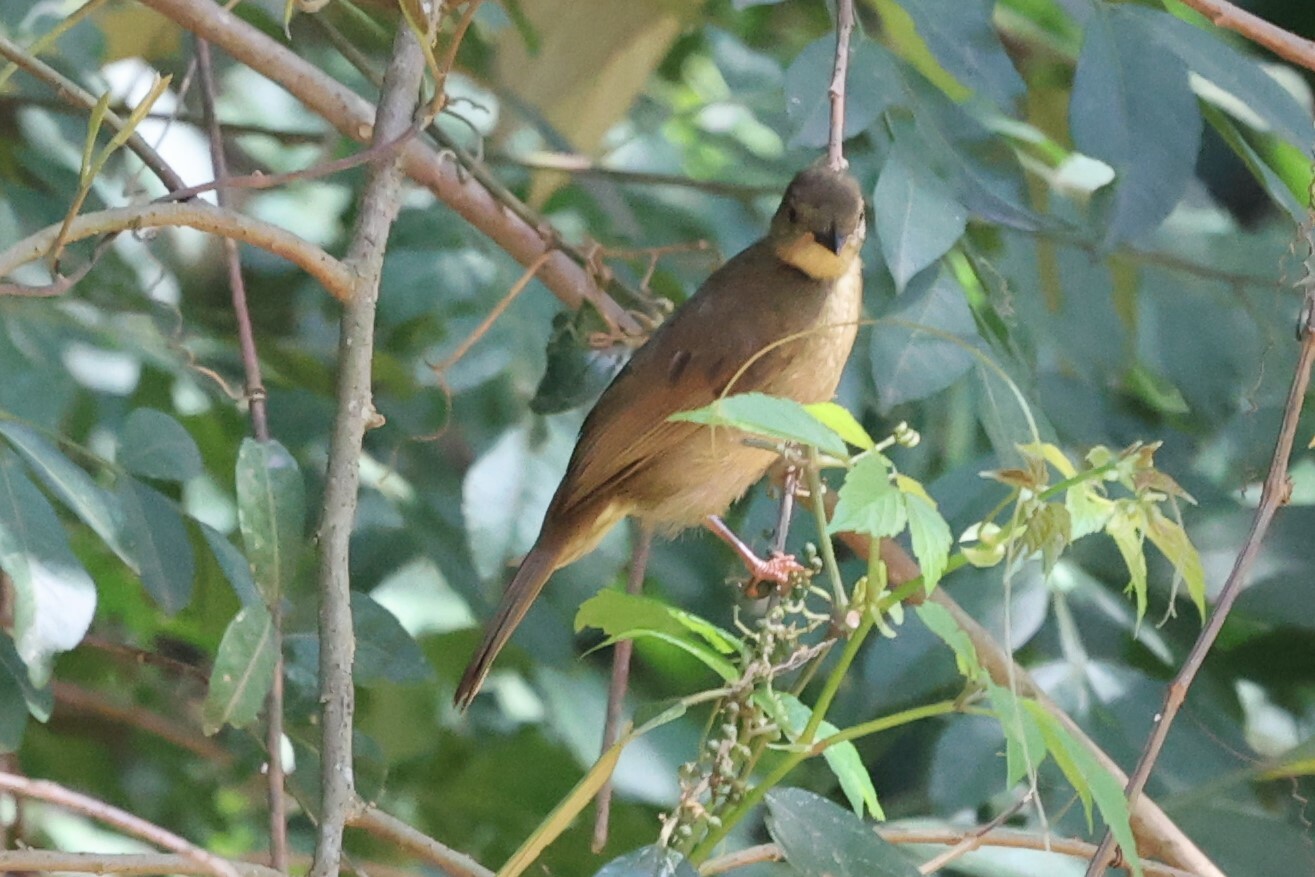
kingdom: Animalia
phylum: Chordata
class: Aves
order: Passeriformes
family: Pycnonotidae
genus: Eurillas
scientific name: Eurillas virens
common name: Little greenbul
